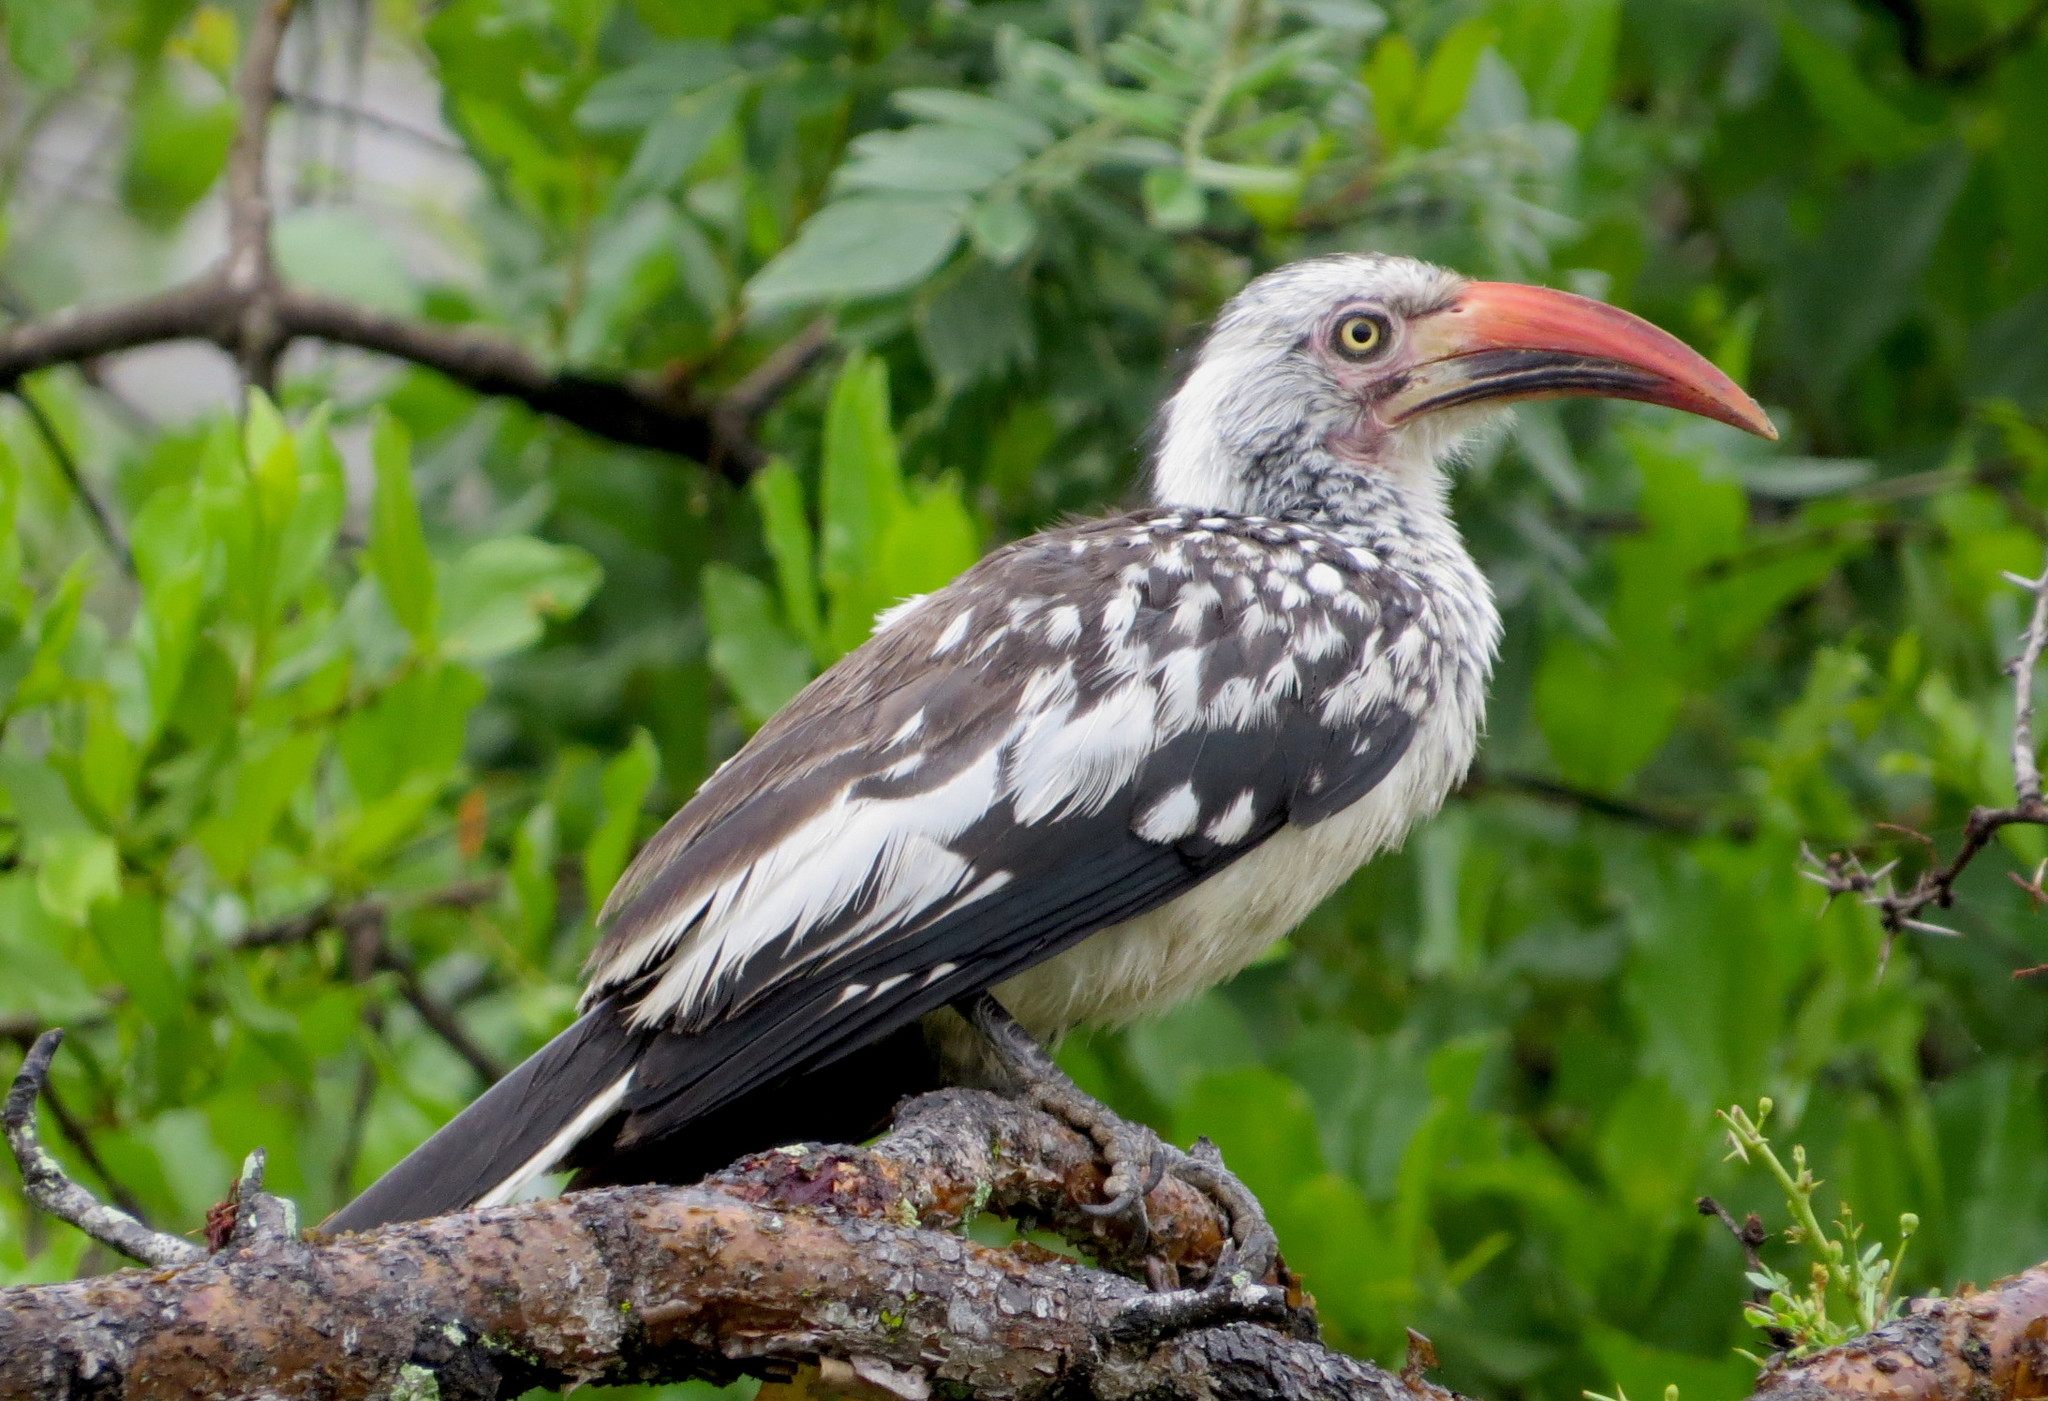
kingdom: Animalia
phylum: Chordata
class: Aves
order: Bucerotiformes
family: Bucerotidae
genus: Tockus
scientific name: Tockus rufirostris
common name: Southern red-billed hornbill
